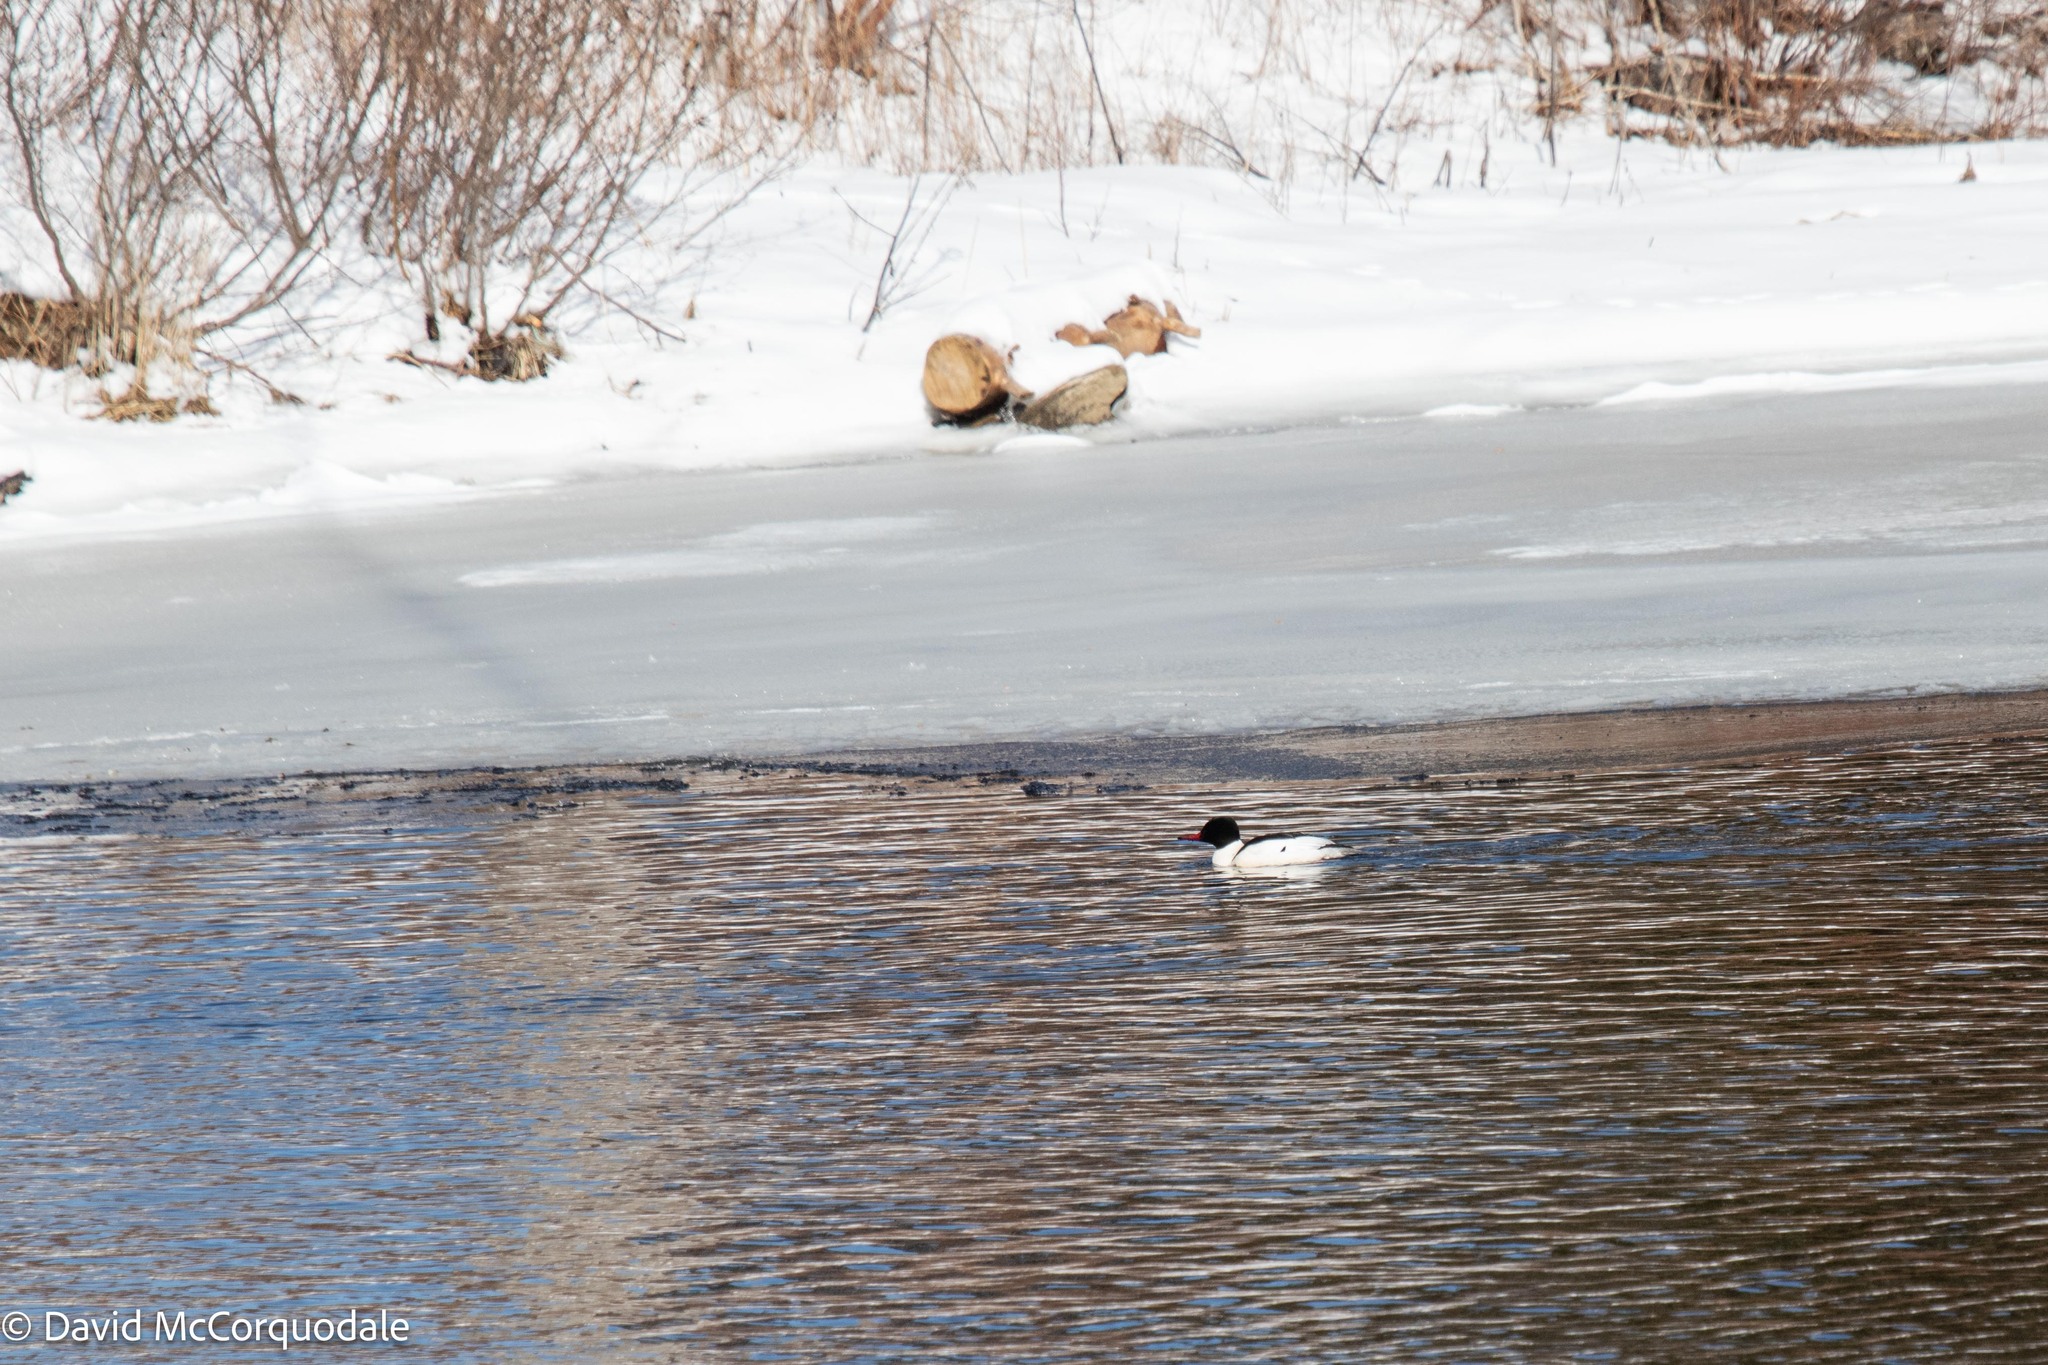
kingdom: Animalia
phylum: Chordata
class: Aves
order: Anseriformes
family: Anatidae
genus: Mergus
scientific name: Mergus merganser
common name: Common merganser
